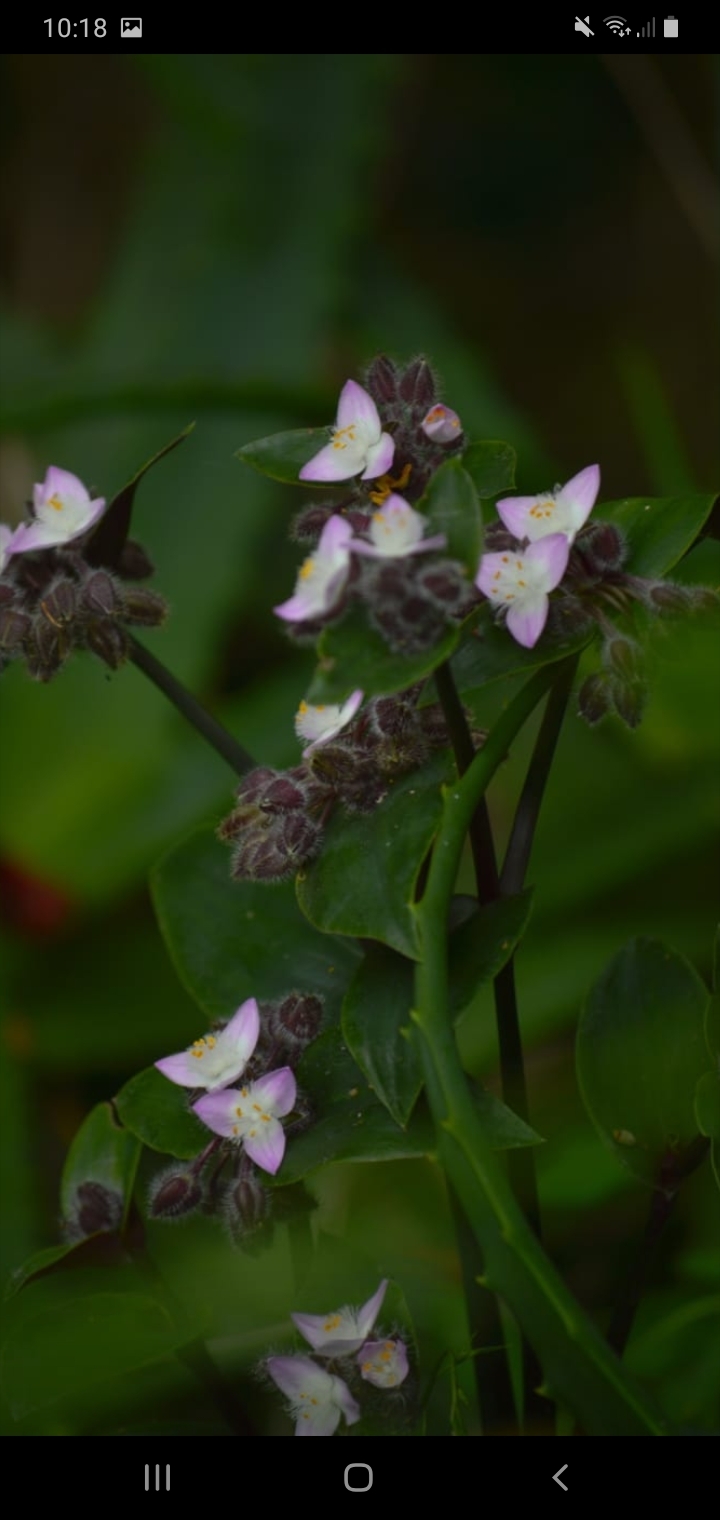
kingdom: Plantae
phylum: Tracheophyta
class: Liliopsida
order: Commelinales
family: Commelinaceae
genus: Tradescantia
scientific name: Tradescantia cerinthoides
